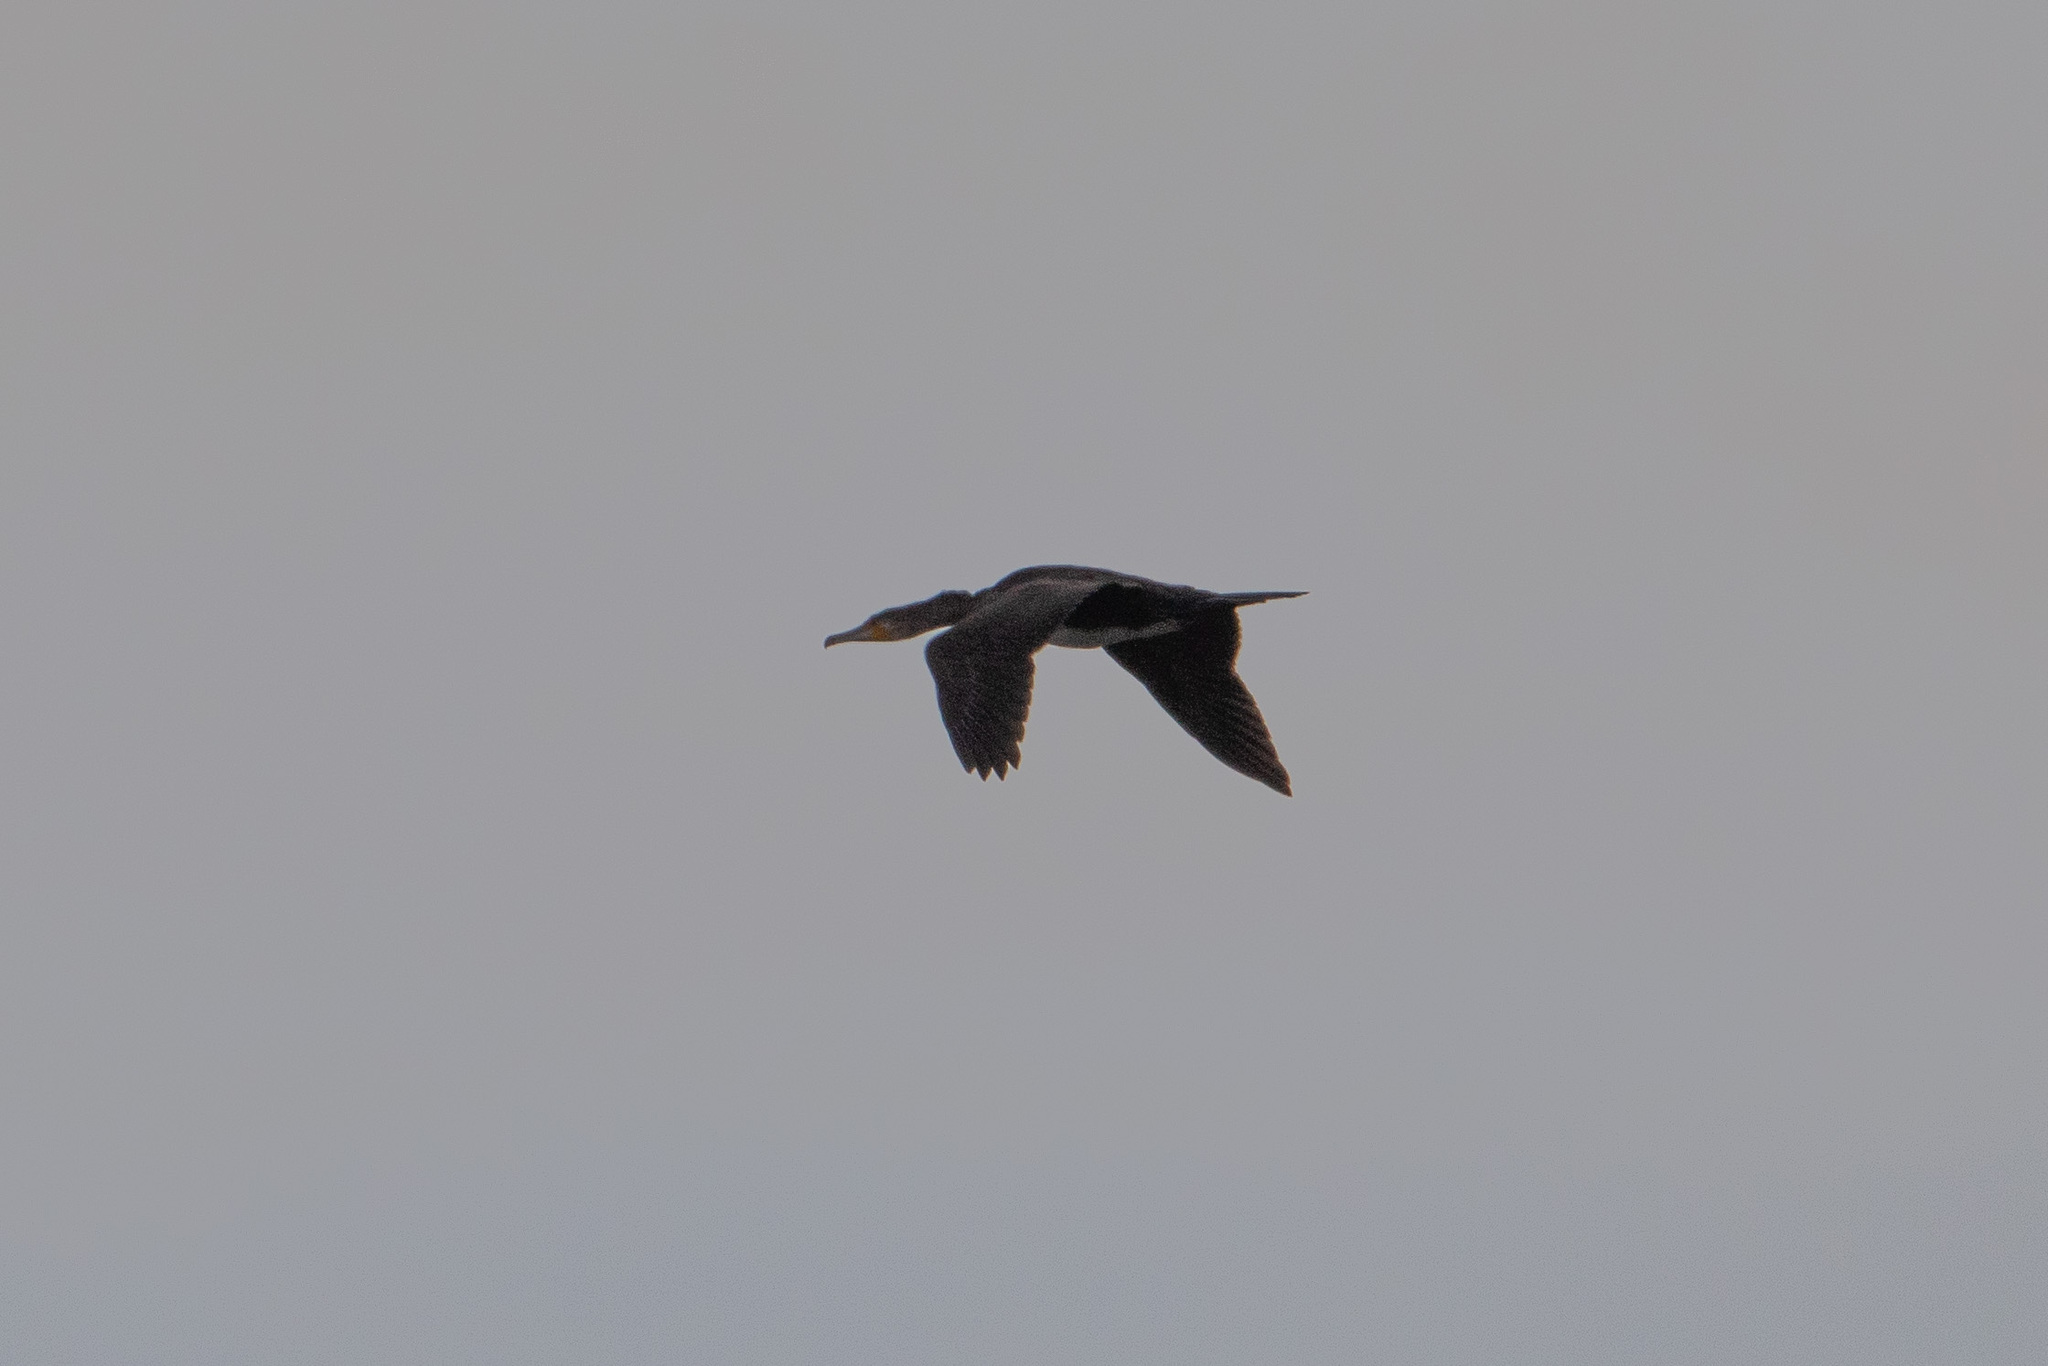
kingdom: Animalia
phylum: Chordata
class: Aves
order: Suliformes
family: Phalacrocoracidae
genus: Phalacrocorax
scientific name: Phalacrocorax carbo
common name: Great cormorant
